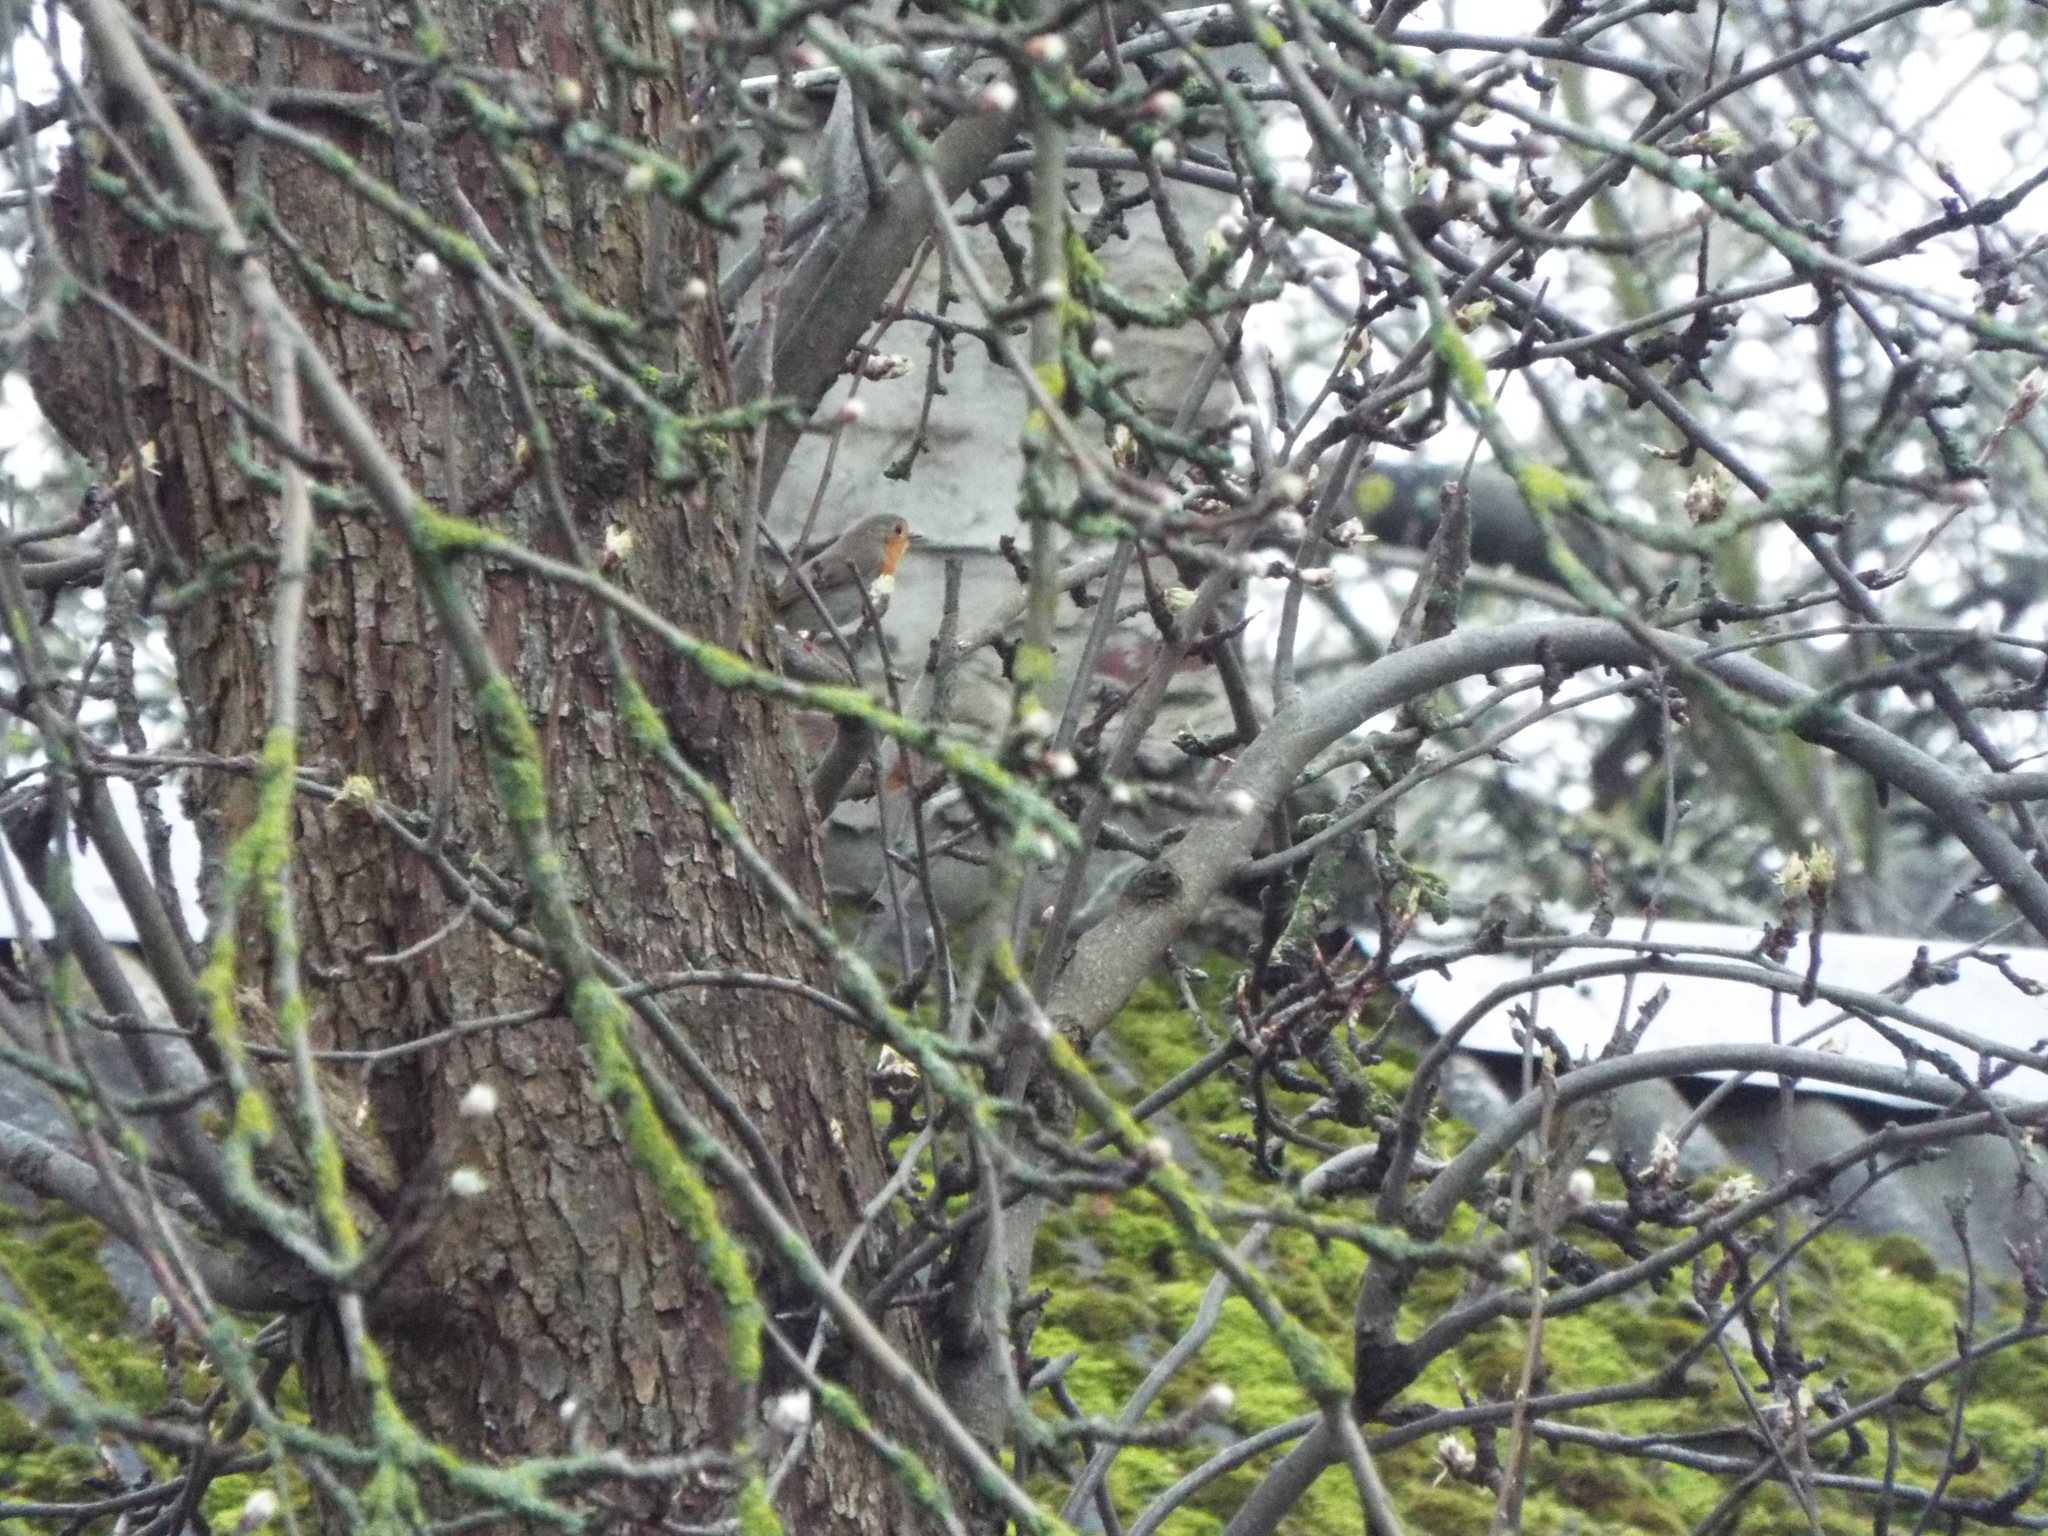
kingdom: Animalia
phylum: Chordata
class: Aves
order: Passeriformes
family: Muscicapidae
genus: Erithacus
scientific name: Erithacus rubecula
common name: European robin
